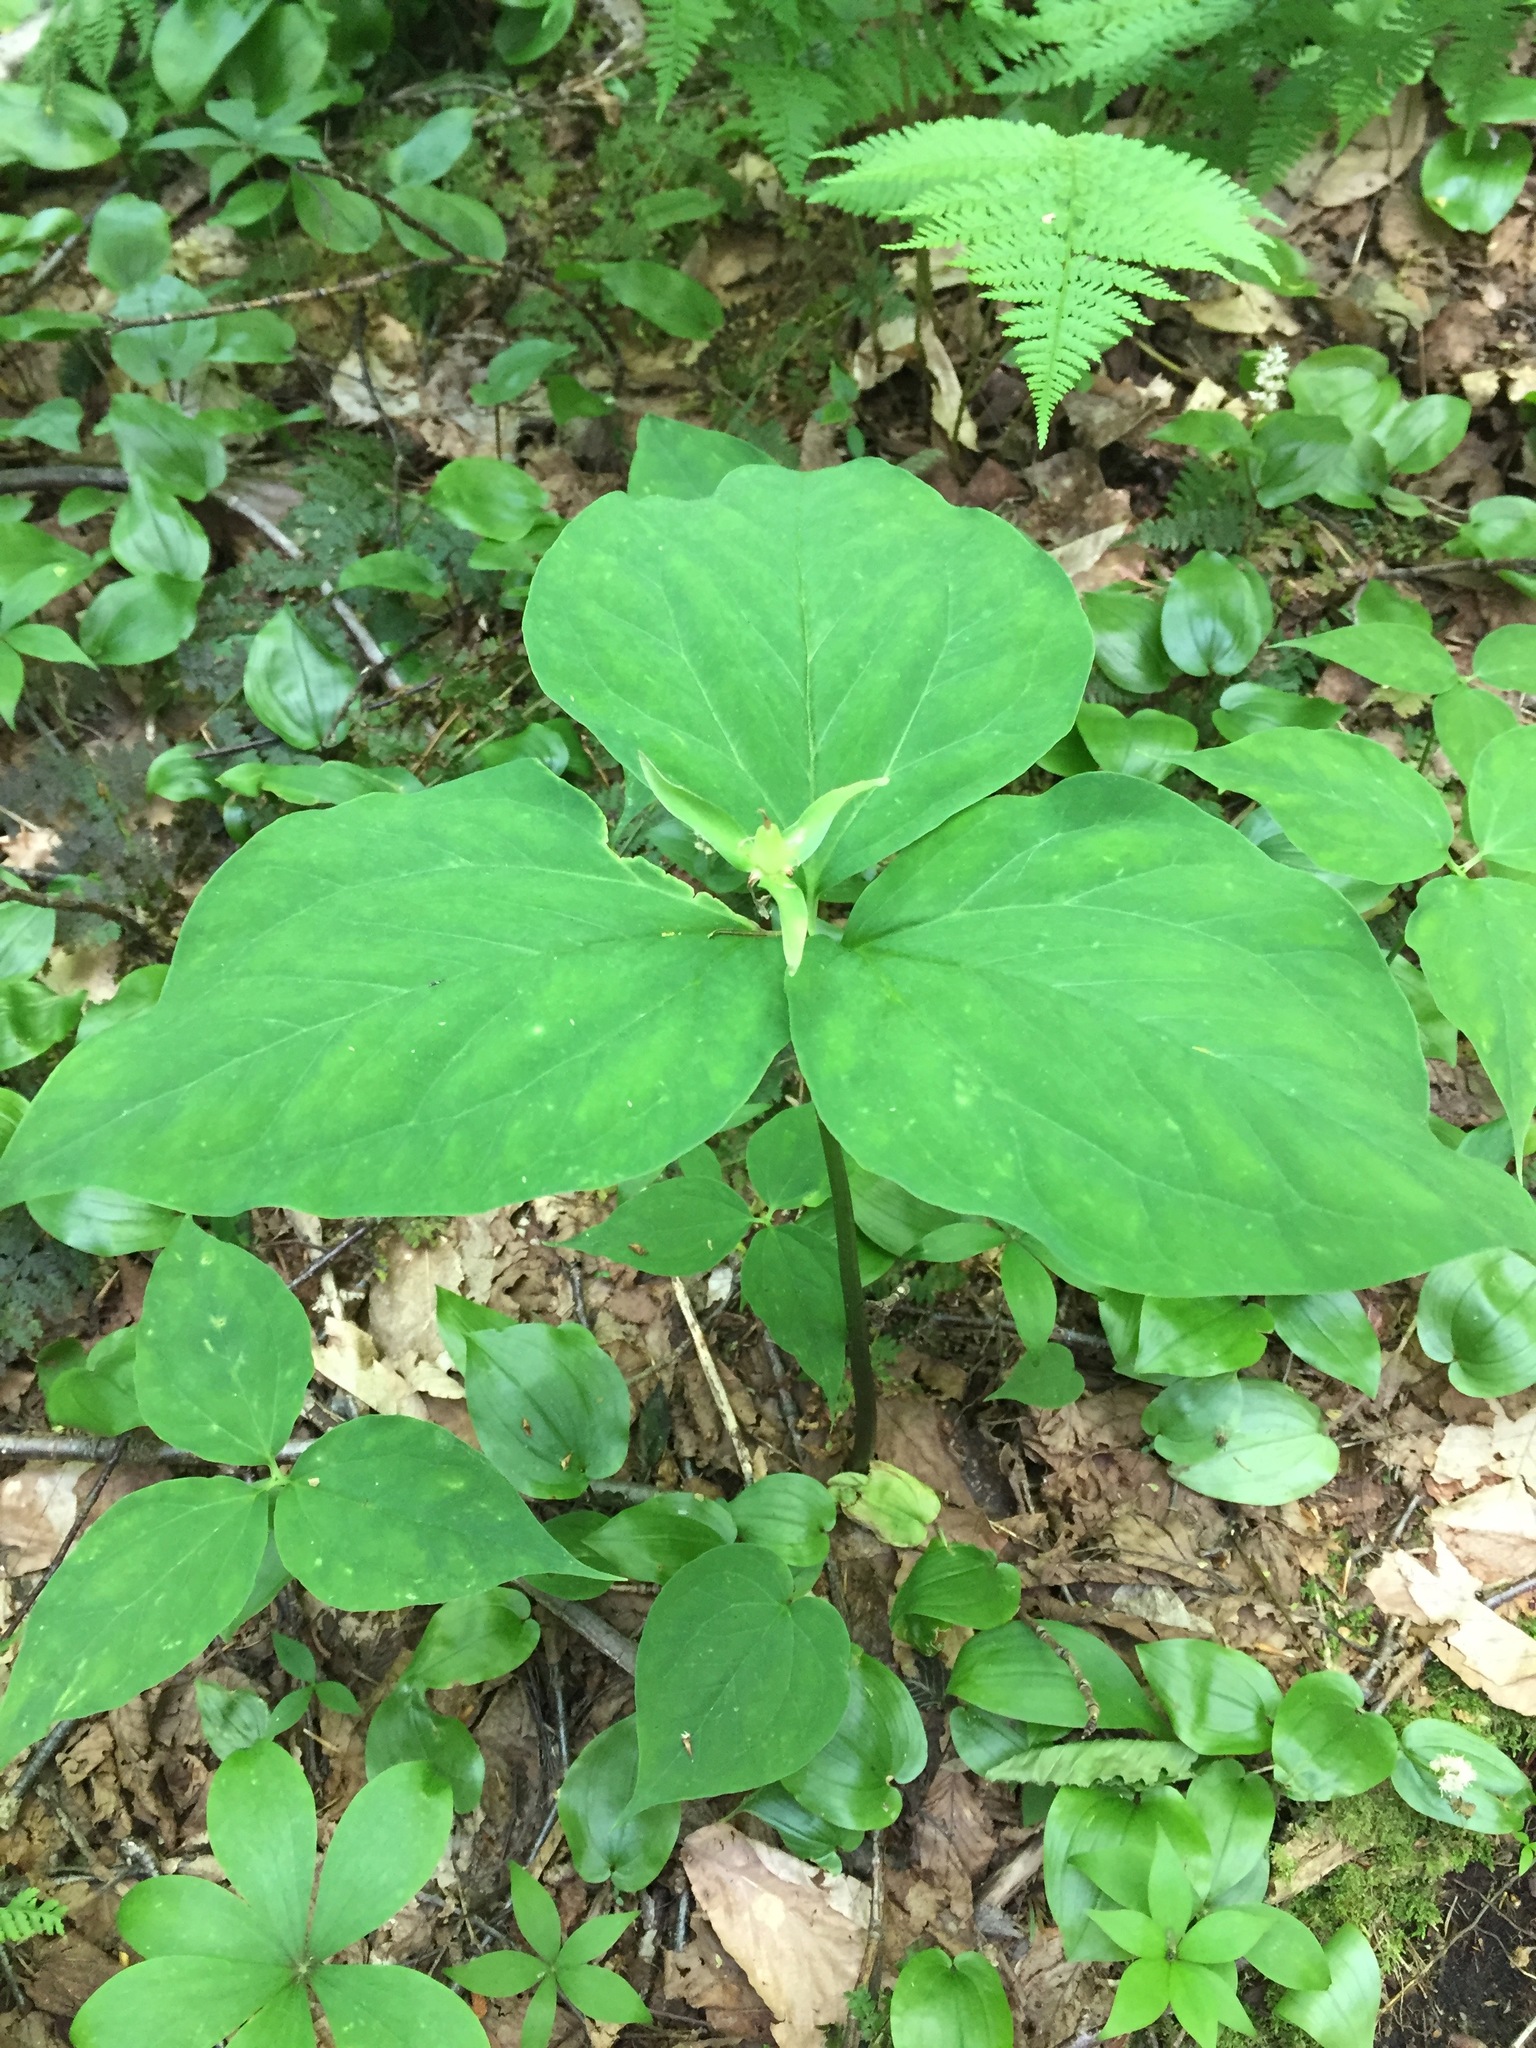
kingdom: Plantae
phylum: Tracheophyta
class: Liliopsida
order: Liliales
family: Melanthiaceae
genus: Trillium
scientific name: Trillium undulatum
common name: Paint trillium
